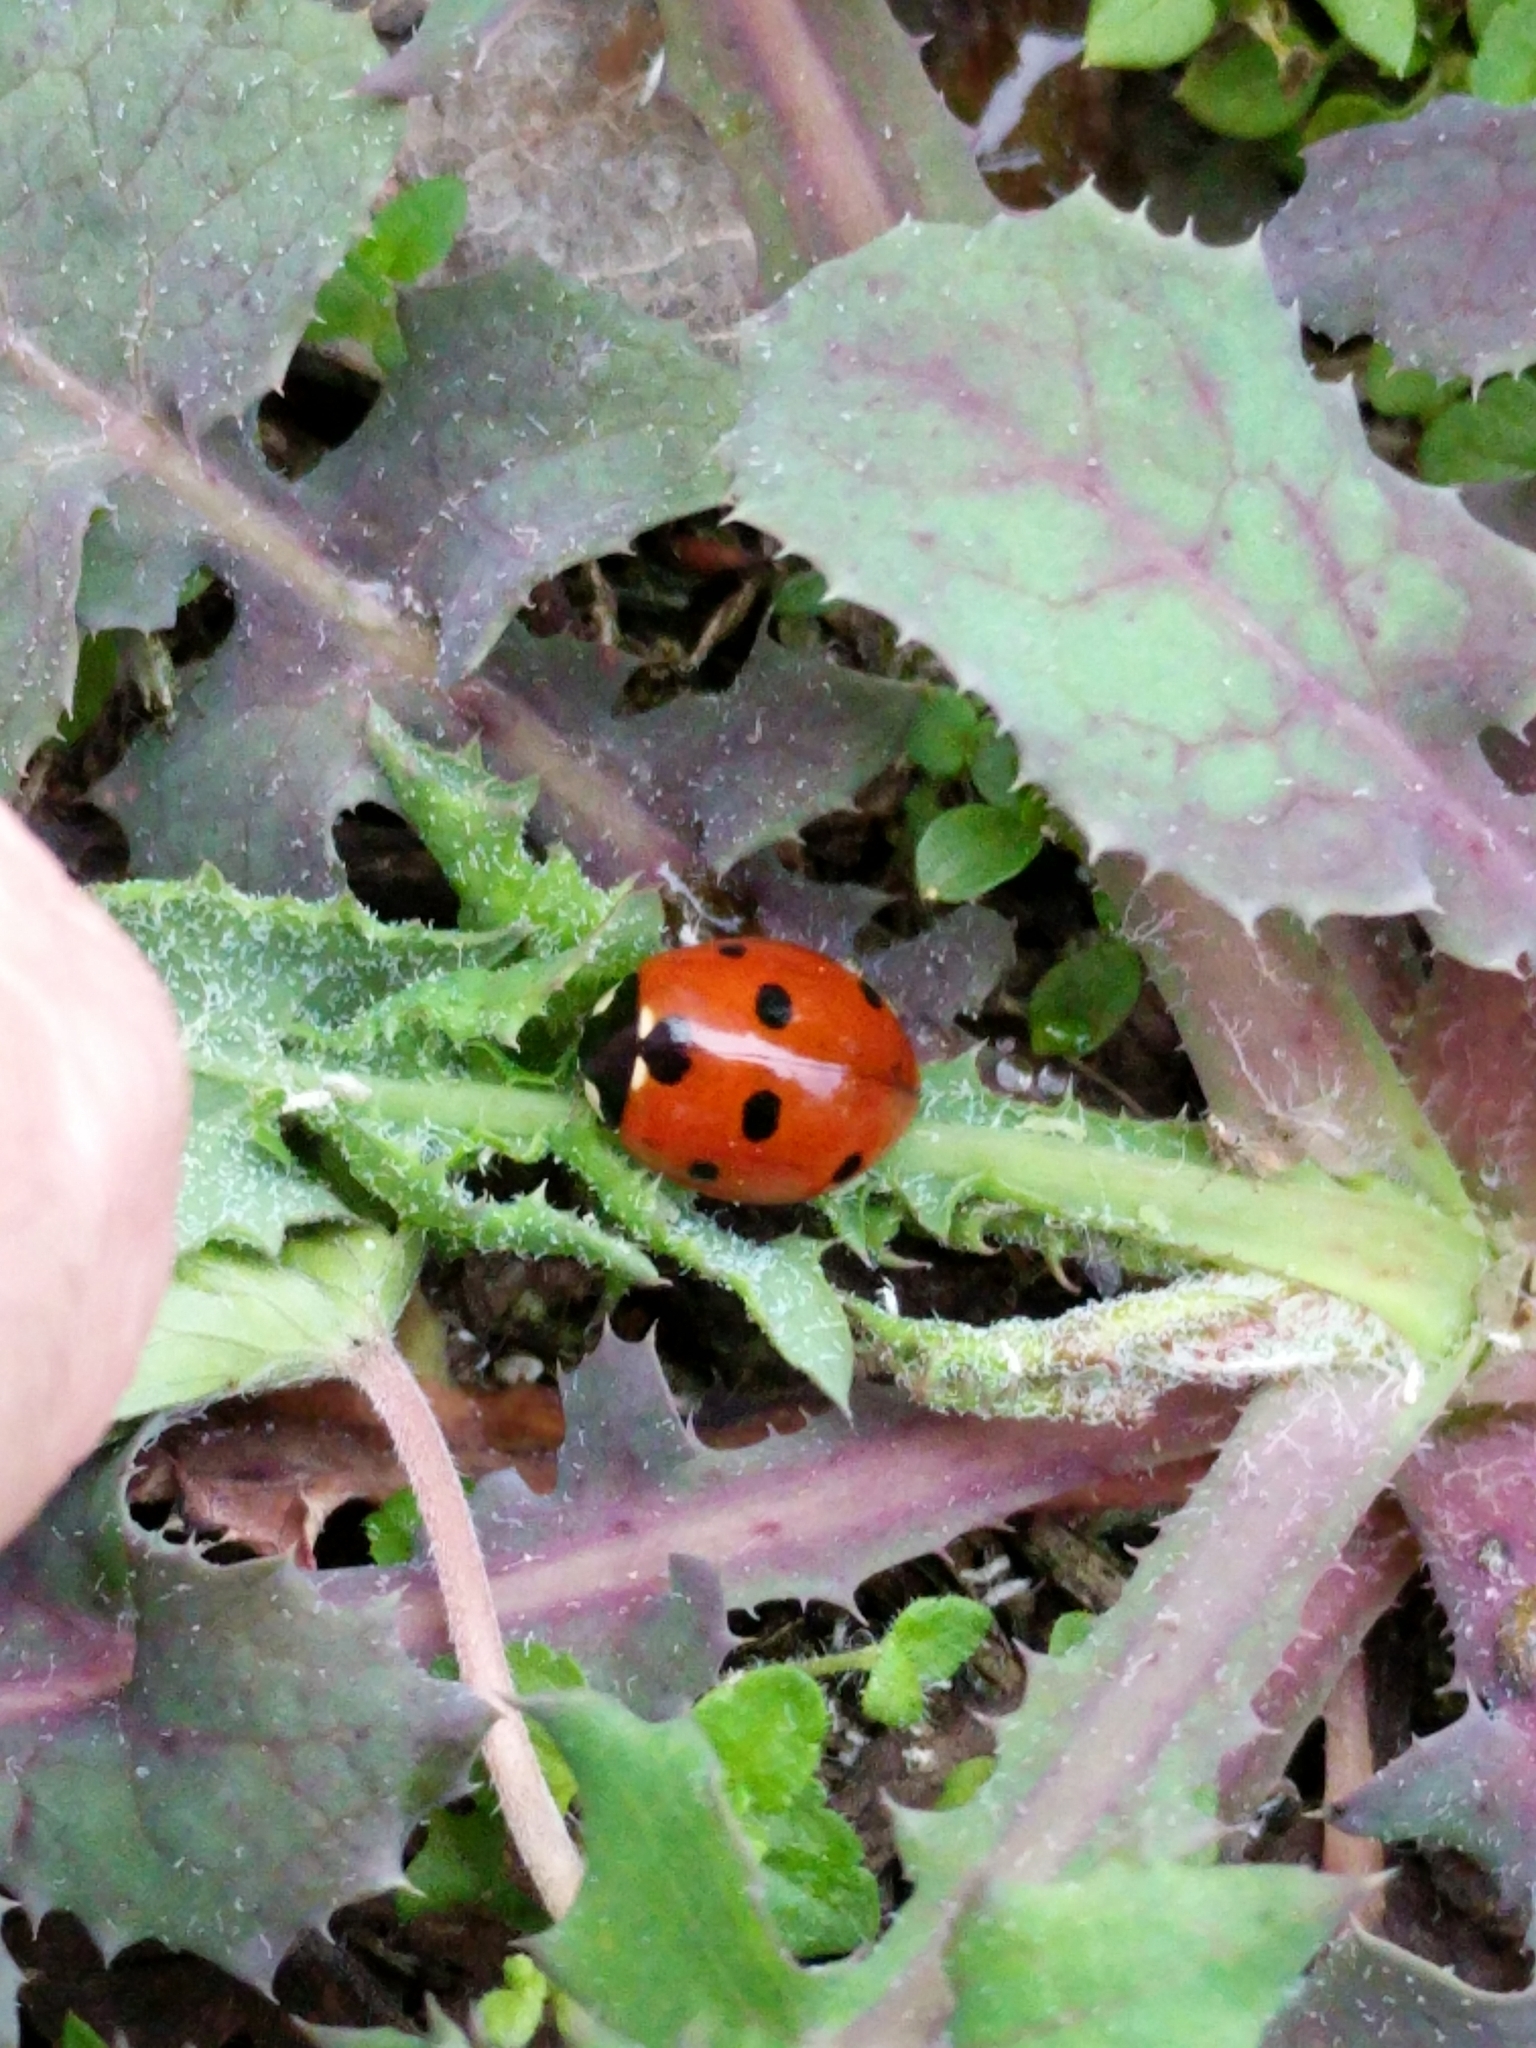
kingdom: Animalia
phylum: Arthropoda
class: Insecta
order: Coleoptera
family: Coccinellidae
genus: Coccinella
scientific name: Coccinella septempunctata
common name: Sevenspotted lady beetle
